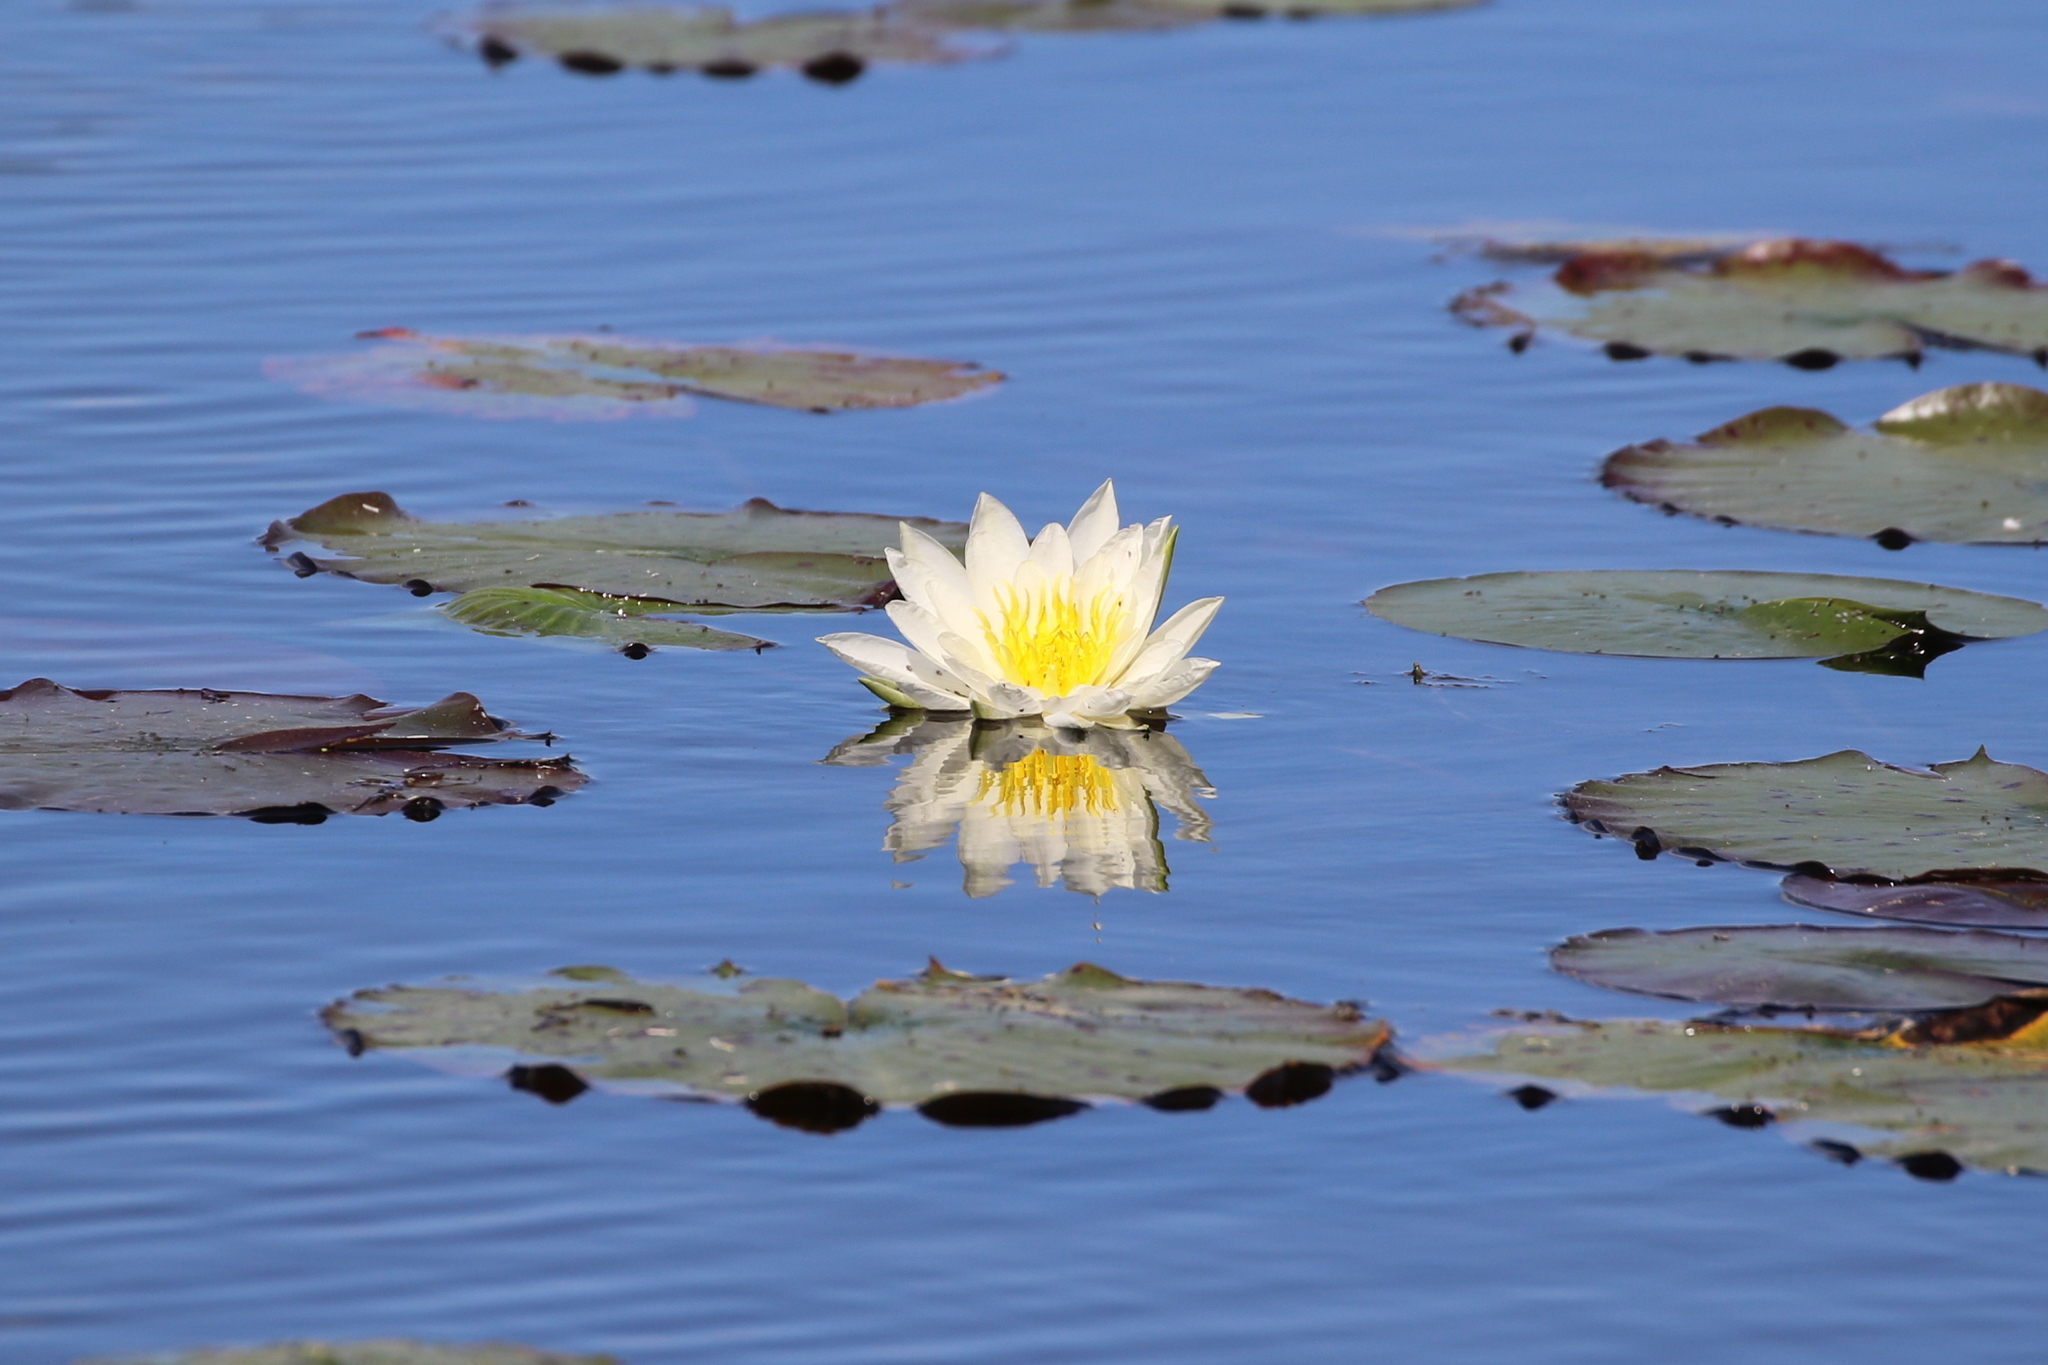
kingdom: Plantae
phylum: Tracheophyta
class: Magnoliopsida
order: Nymphaeales
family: Nymphaeaceae
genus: Nymphaea
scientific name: Nymphaea odorata
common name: Fragrant water-lily
